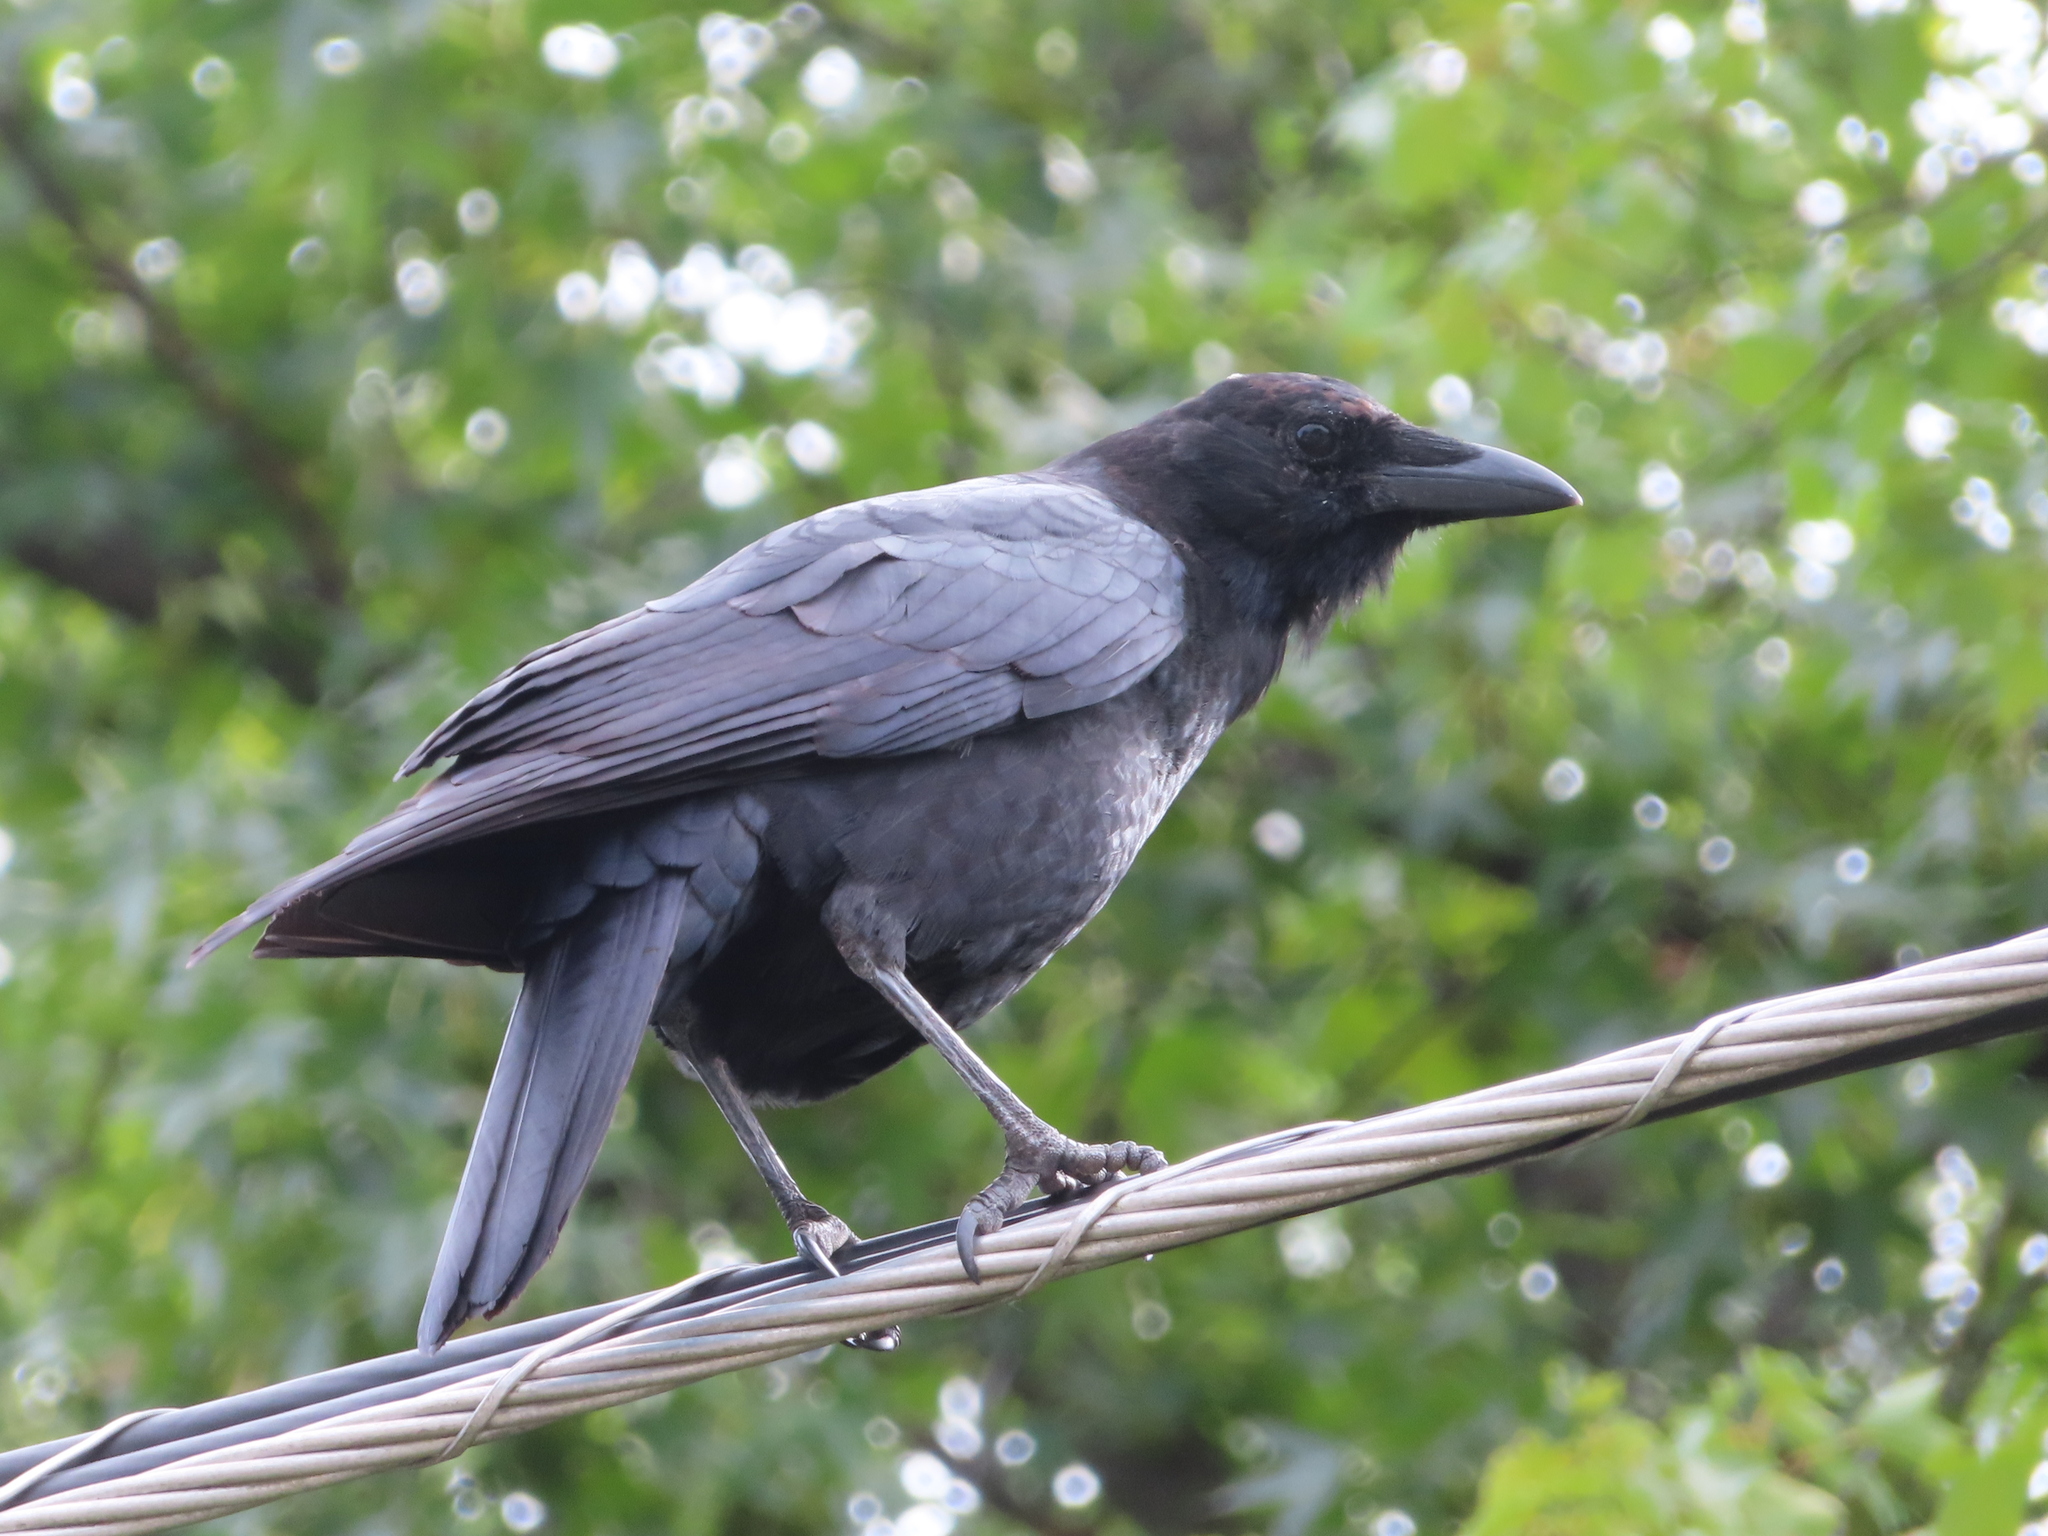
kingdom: Animalia
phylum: Chordata
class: Aves
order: Passeriformes
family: Corvidae
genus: Corvus
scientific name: Corvus brachyrhynchos
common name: American crow
